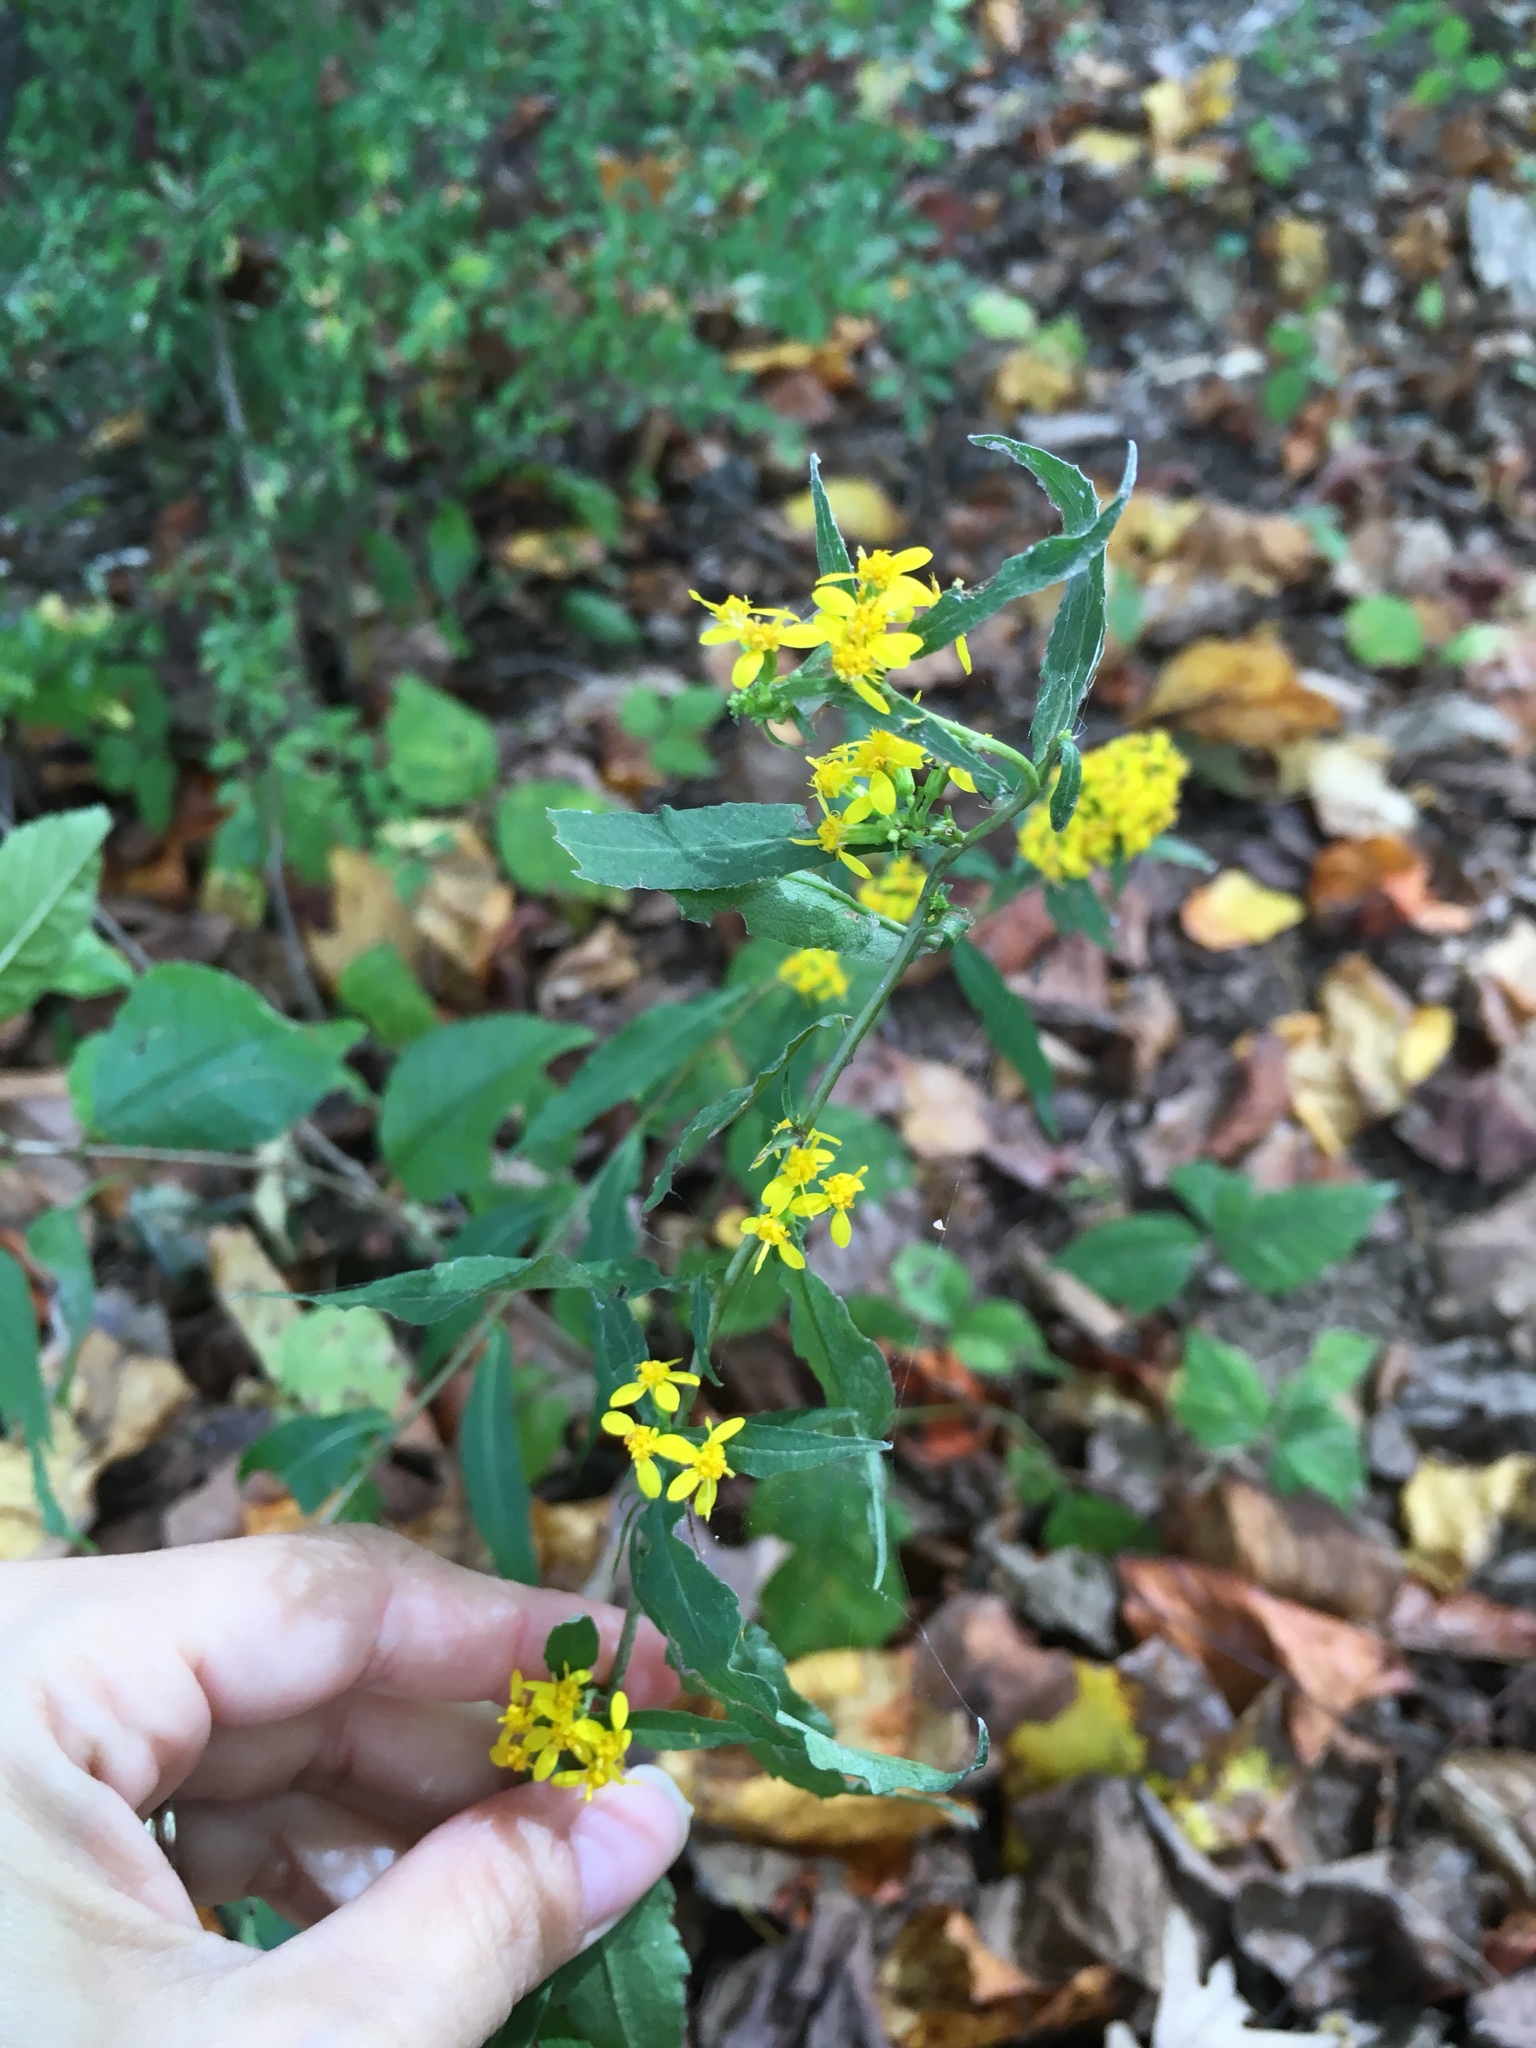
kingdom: Plantae
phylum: Tracheophyta
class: Magnoliopsida
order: Asterales
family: Asteraceae
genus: Solidago
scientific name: Solidago caesia
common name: Woodland goldenrod
